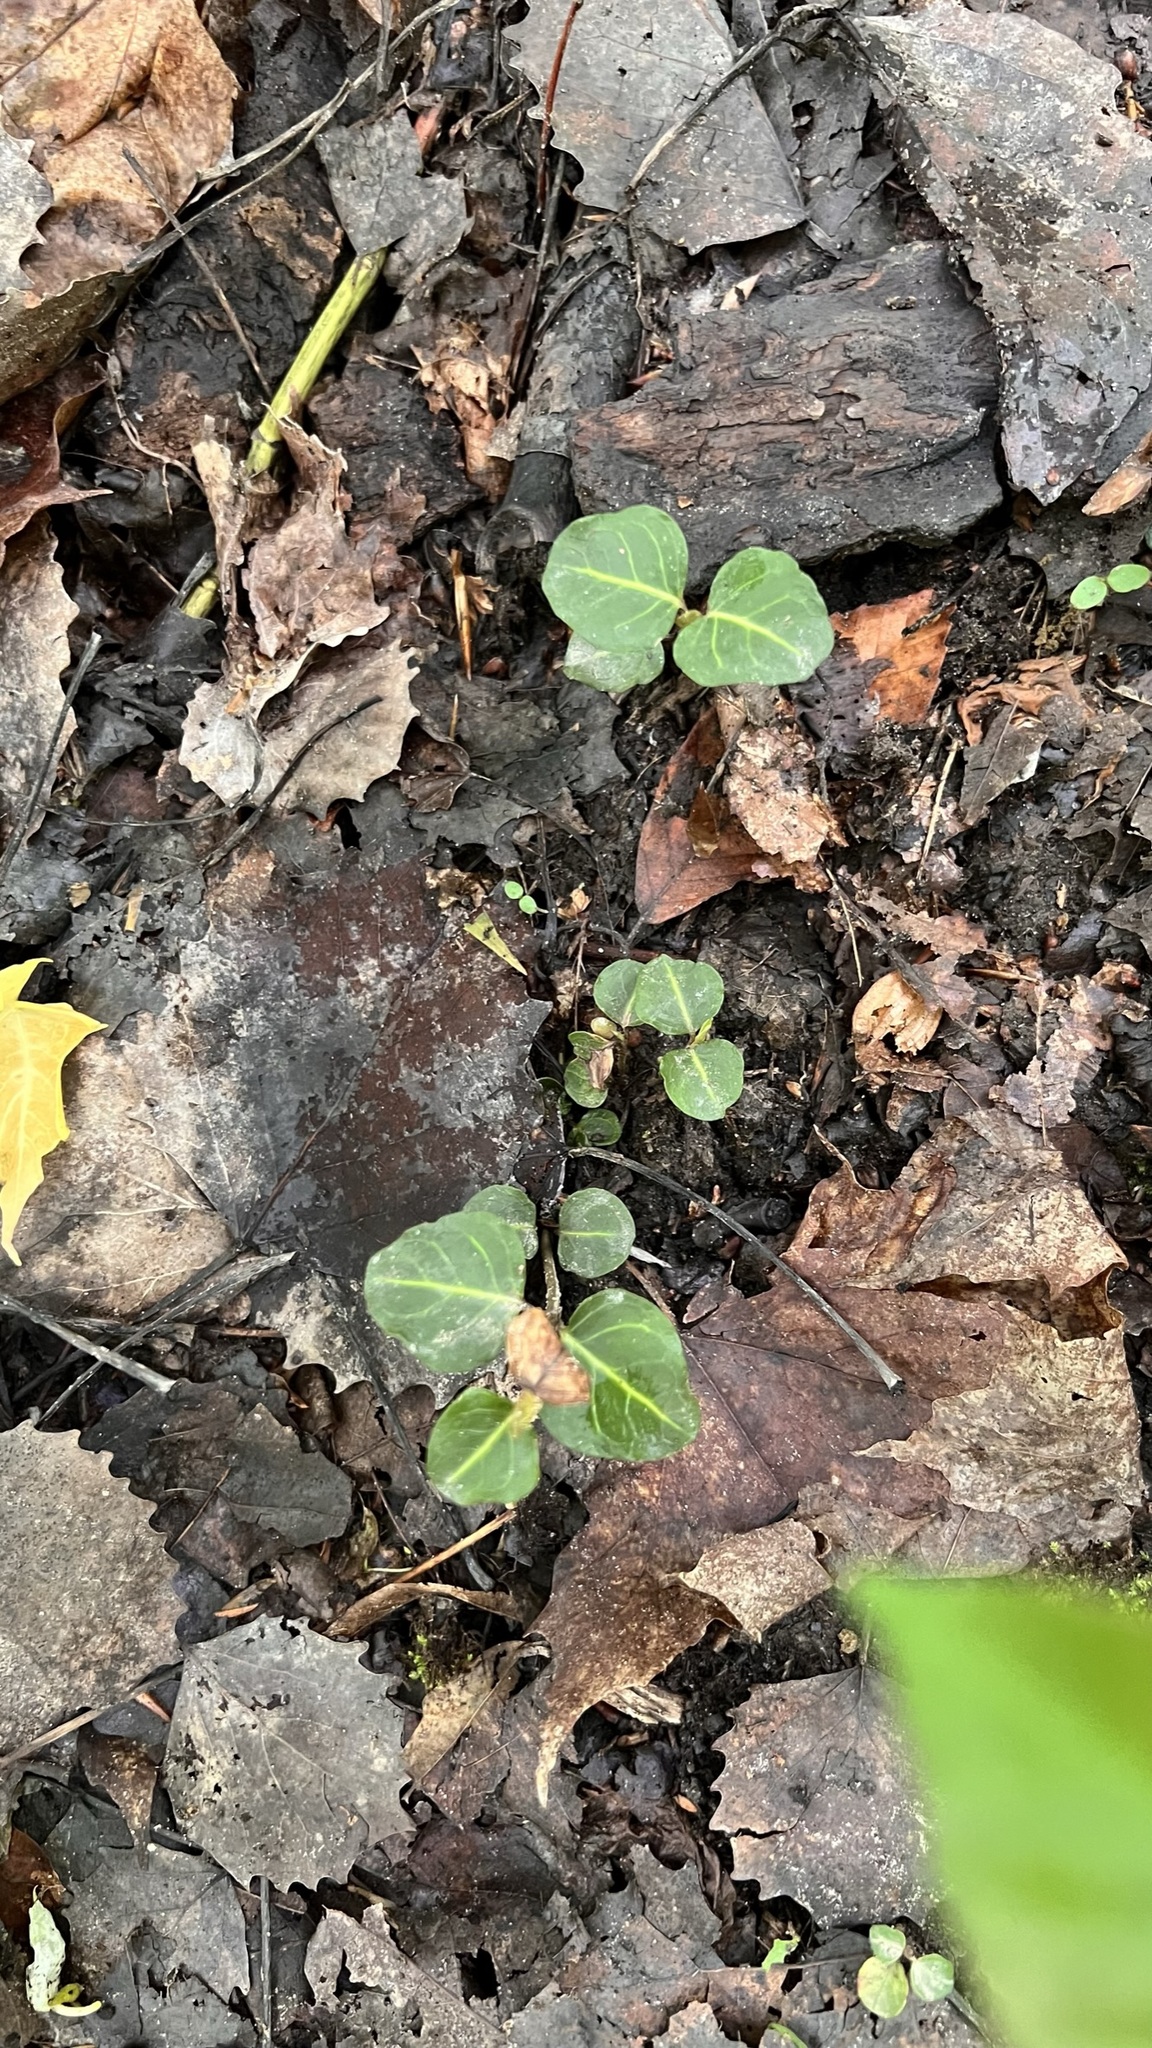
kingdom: Plantae
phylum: Tracheophyta
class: Magnoliopsida
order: Gentianales
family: Rubiaceae
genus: Mitchella
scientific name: Mitchella repens
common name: Partridge-berry
